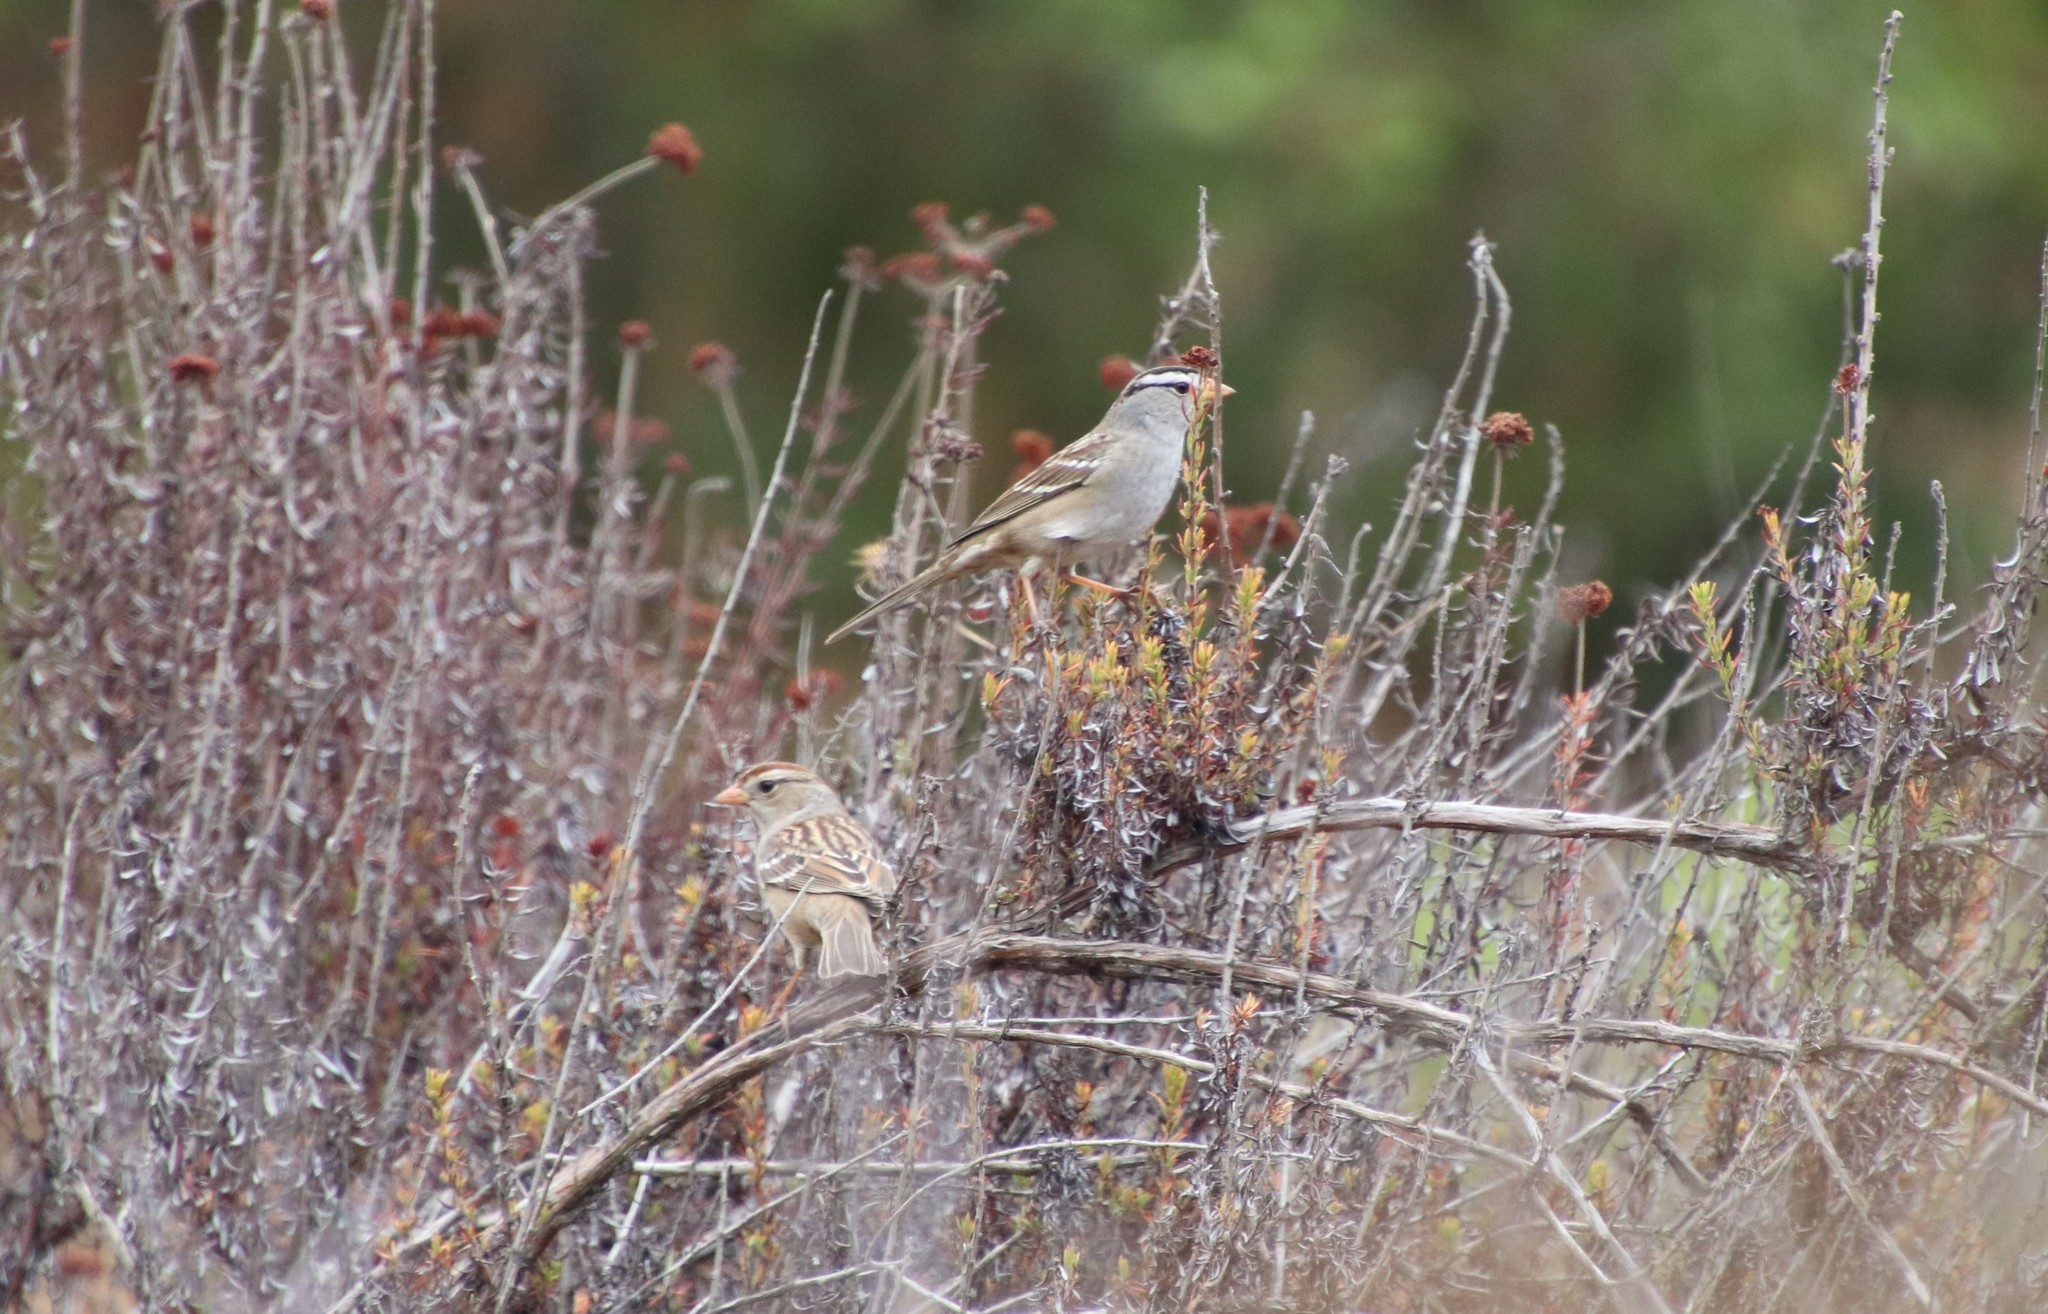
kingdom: Animalia
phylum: Chordata
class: Aves
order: Passeriformes
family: Passerellidae
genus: Zonotrichia
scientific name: Zonotrichia leucophrys
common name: White-crowned sparrow
